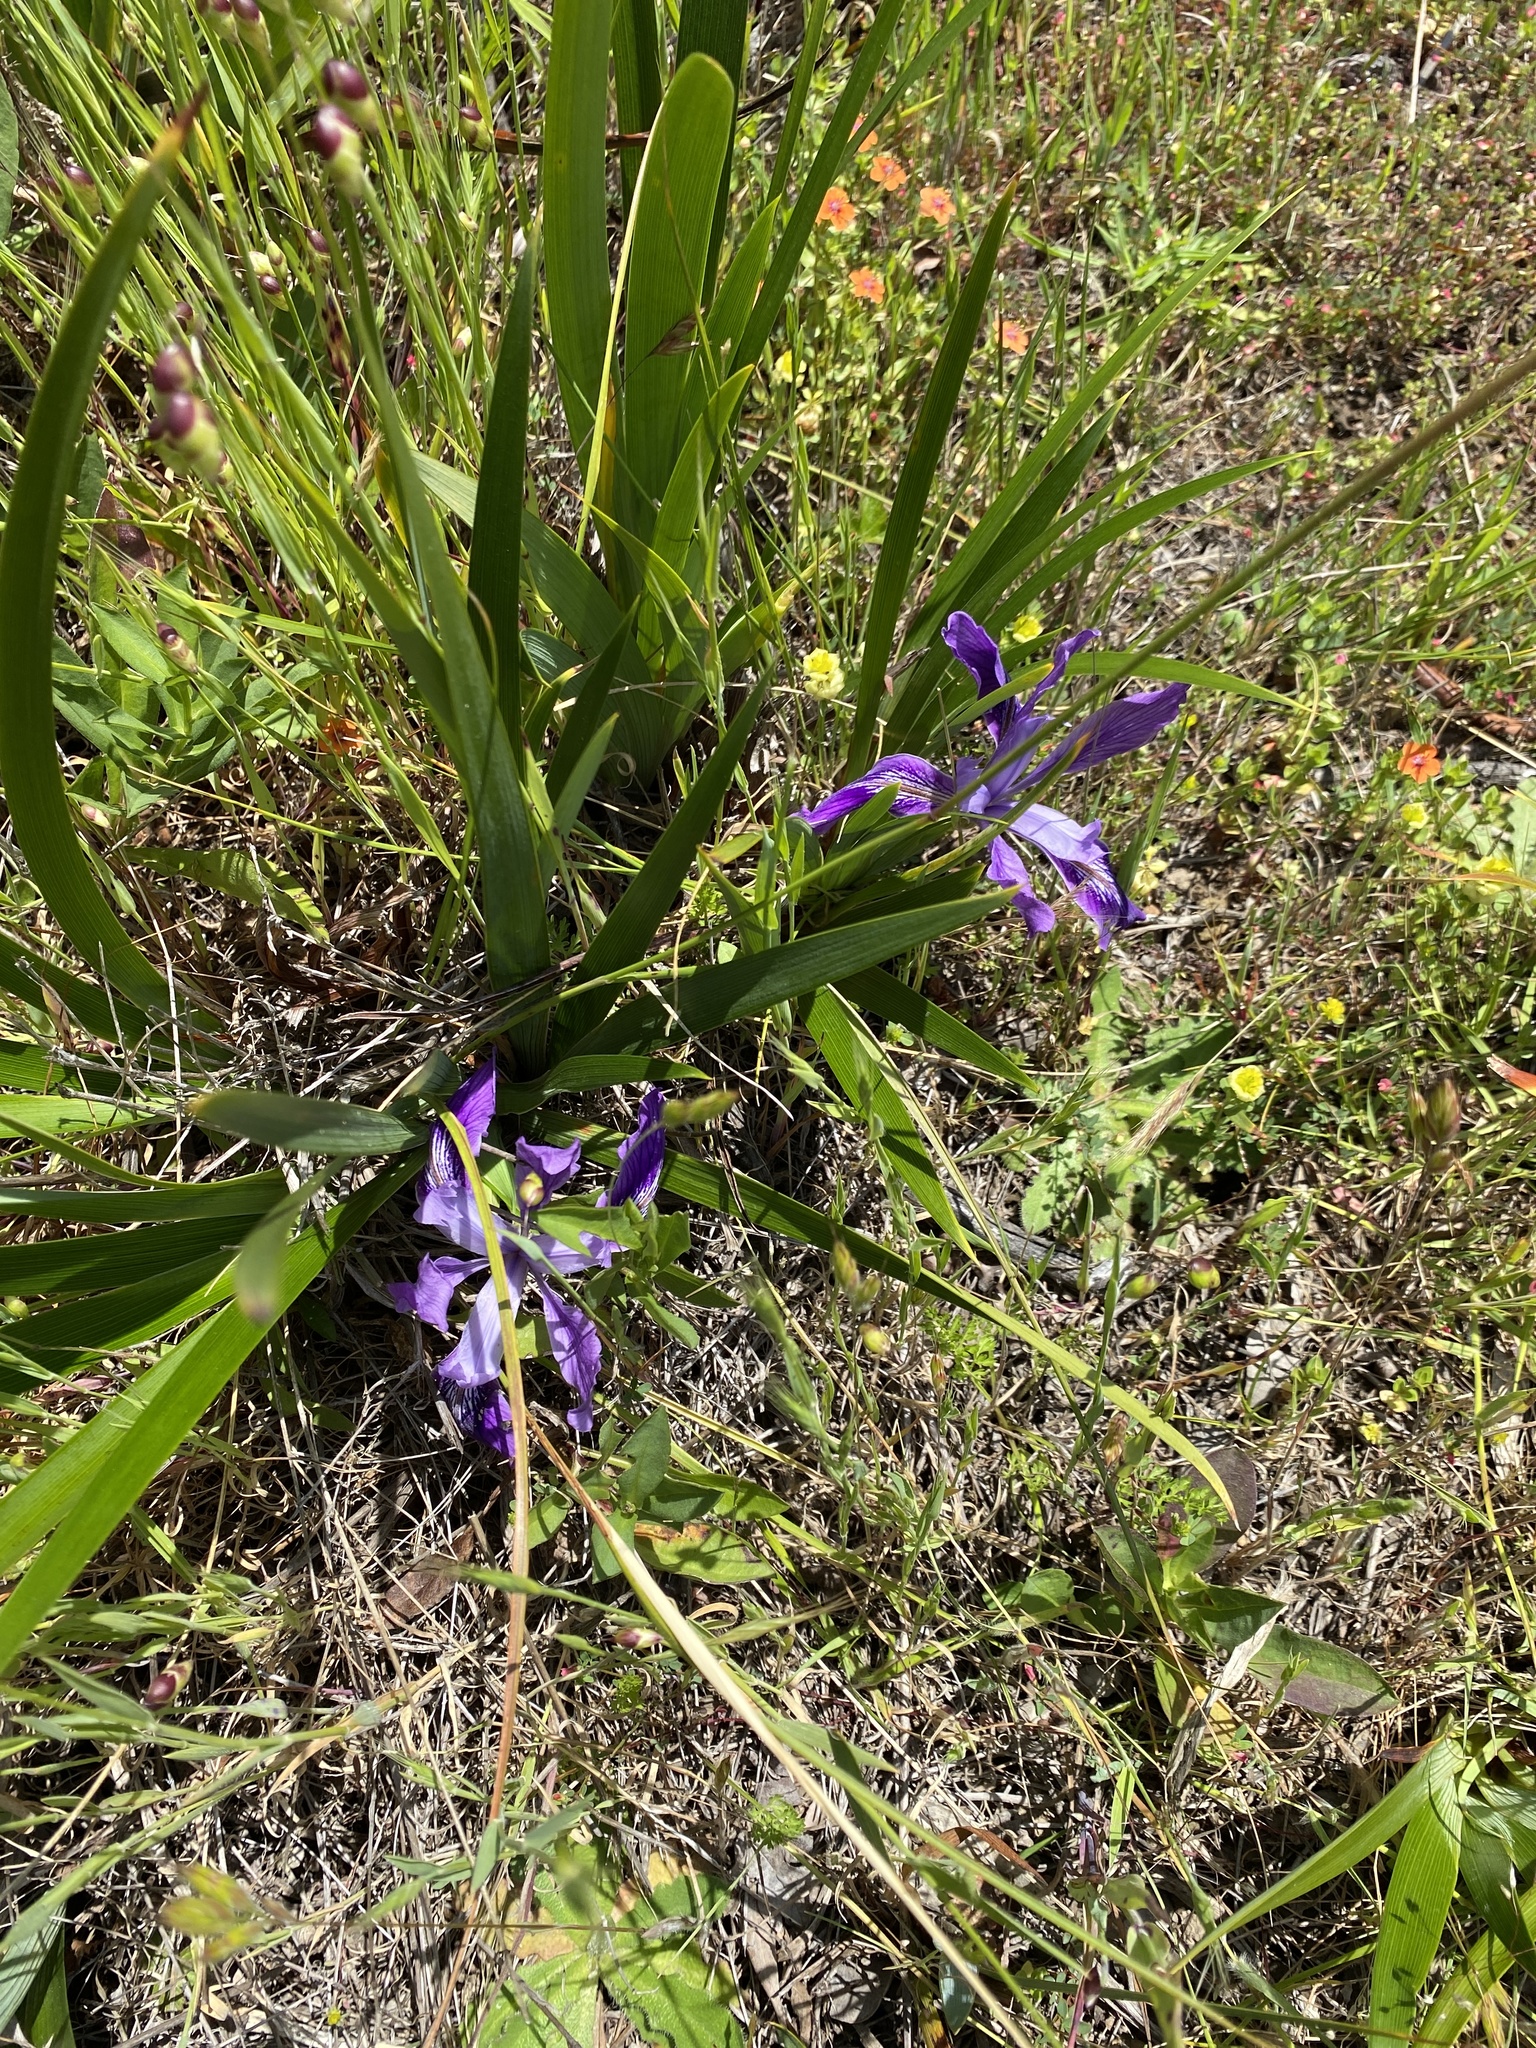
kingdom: Plantae
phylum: Tracheophyta
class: Liliopsida
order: Asparagales
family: Iridaceae
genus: Iris
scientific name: Iris douglasiana
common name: Marin iris
